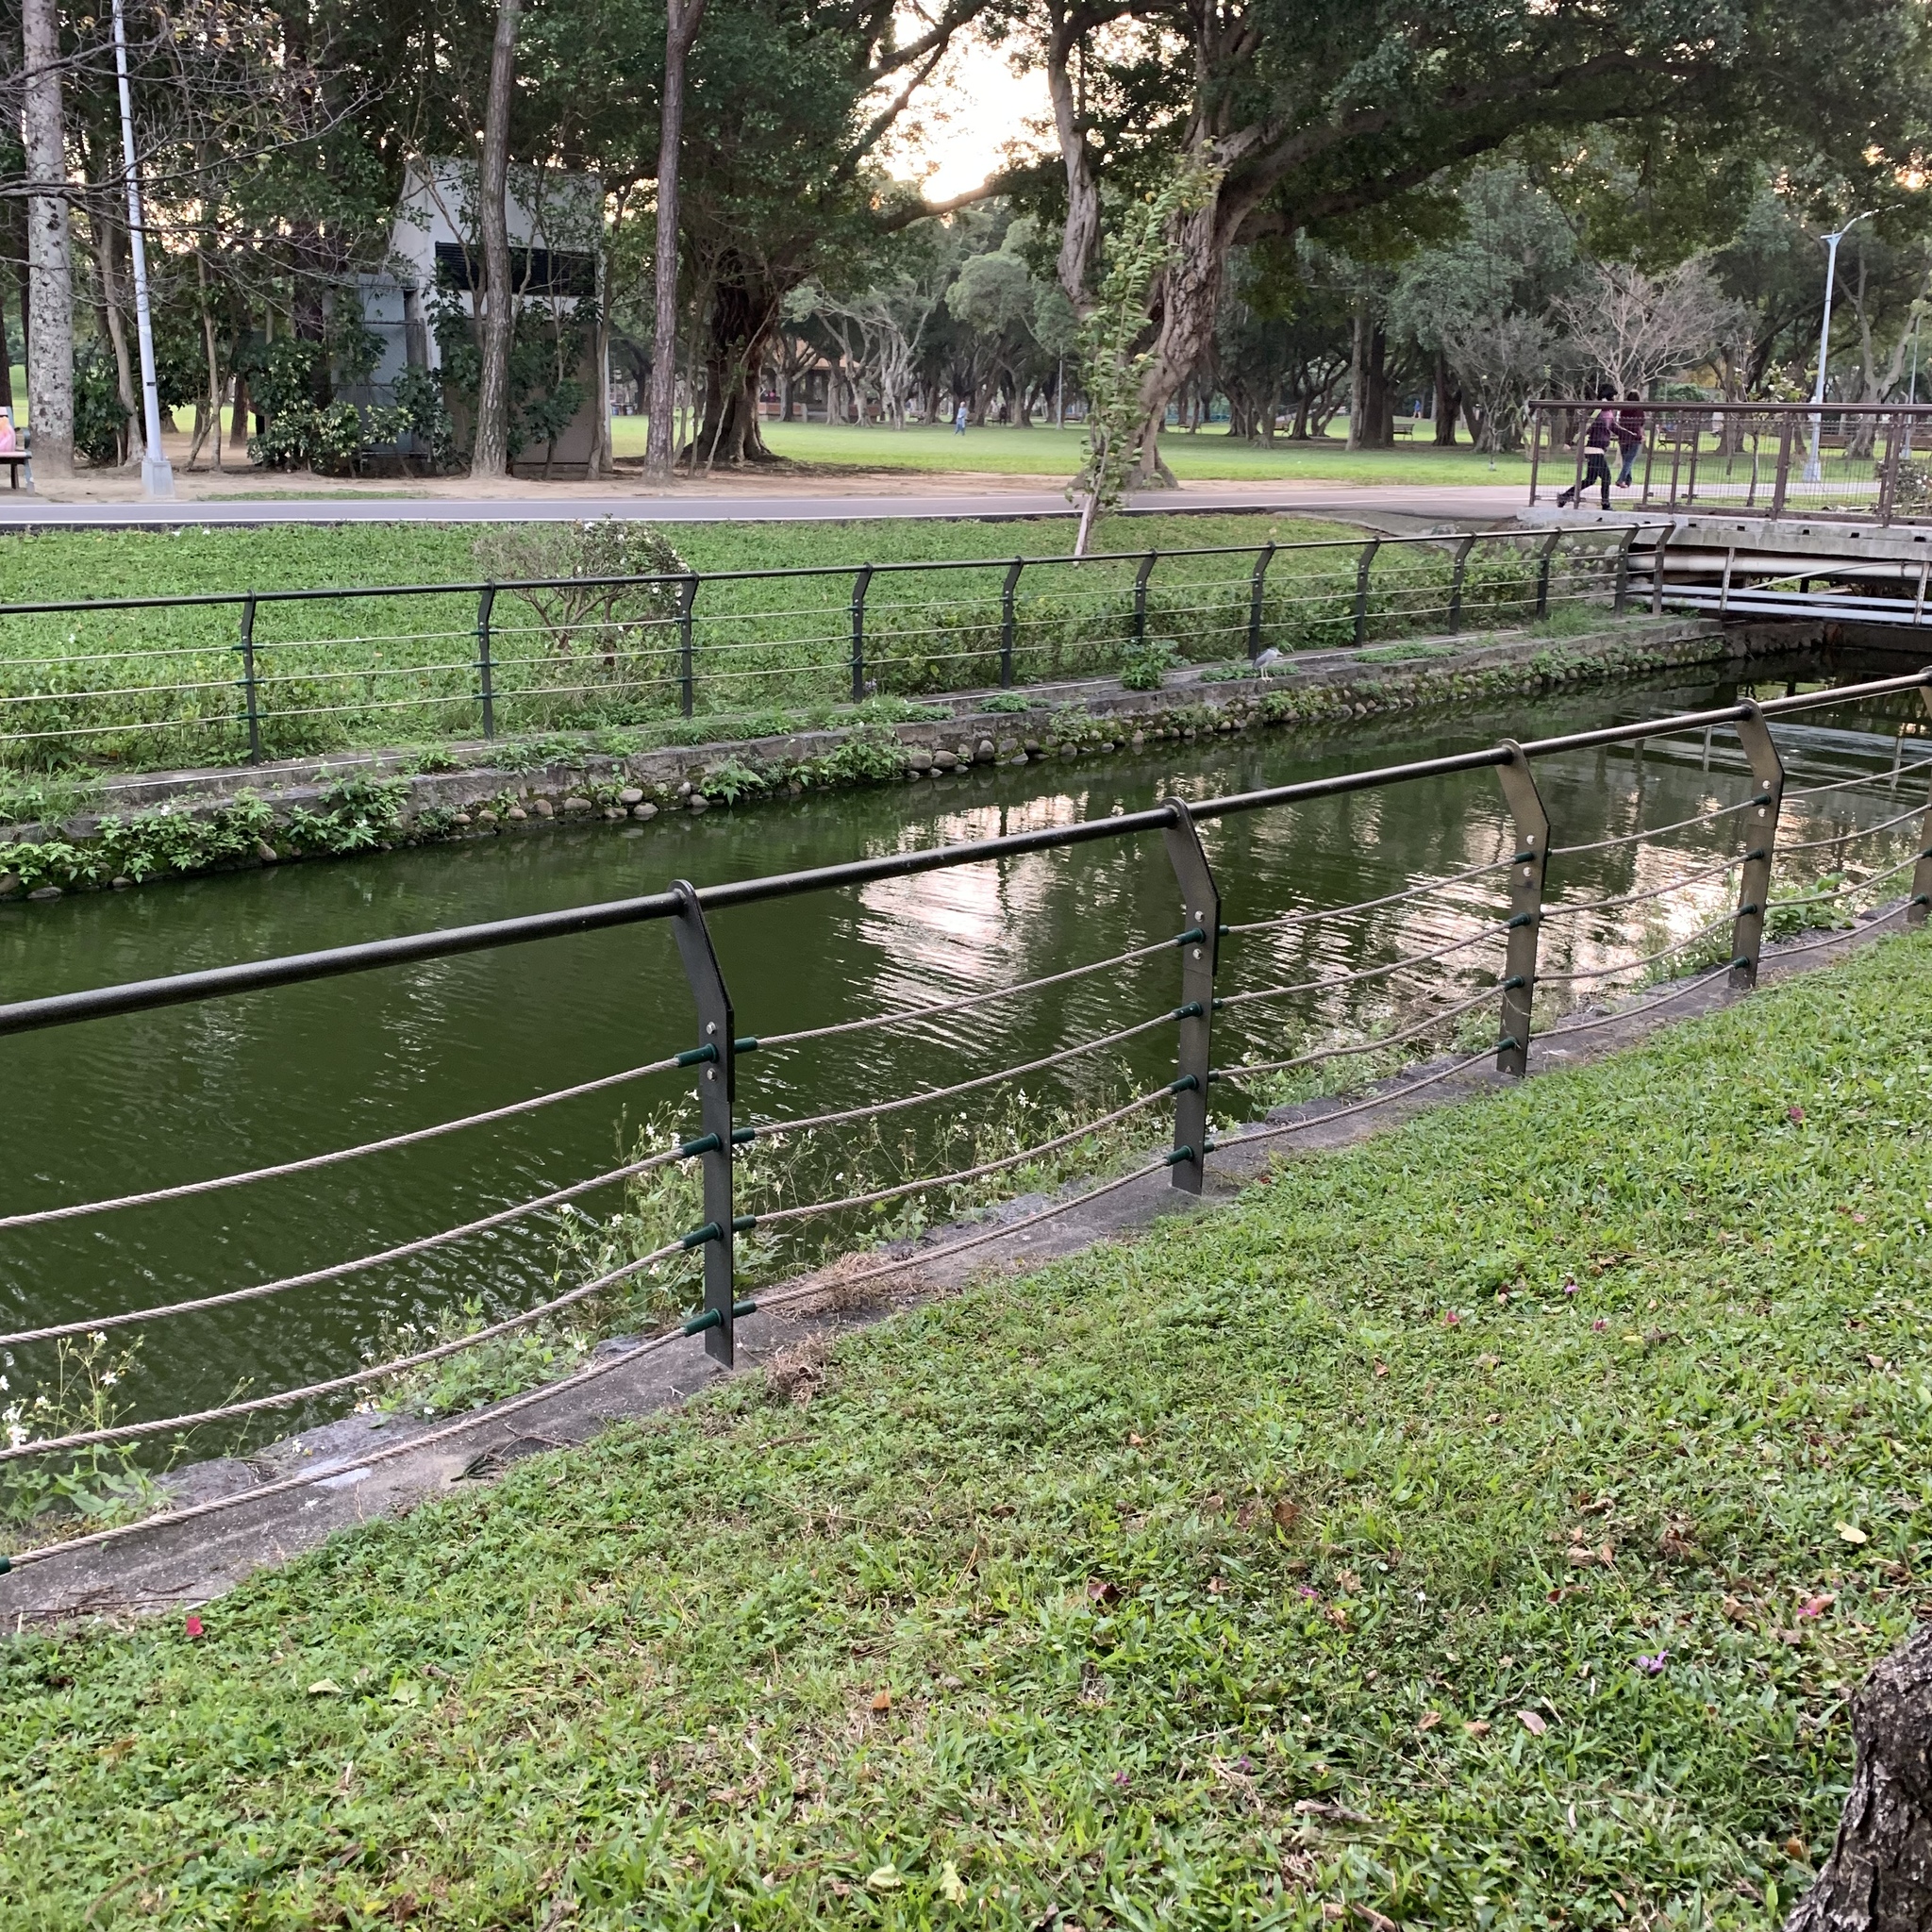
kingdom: Animalia
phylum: Chordata
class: Aves
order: Pelecaniformes
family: Ardeidae
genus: Nycticorax
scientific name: Nycticorax nycticorax
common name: Black-crowned night heron
